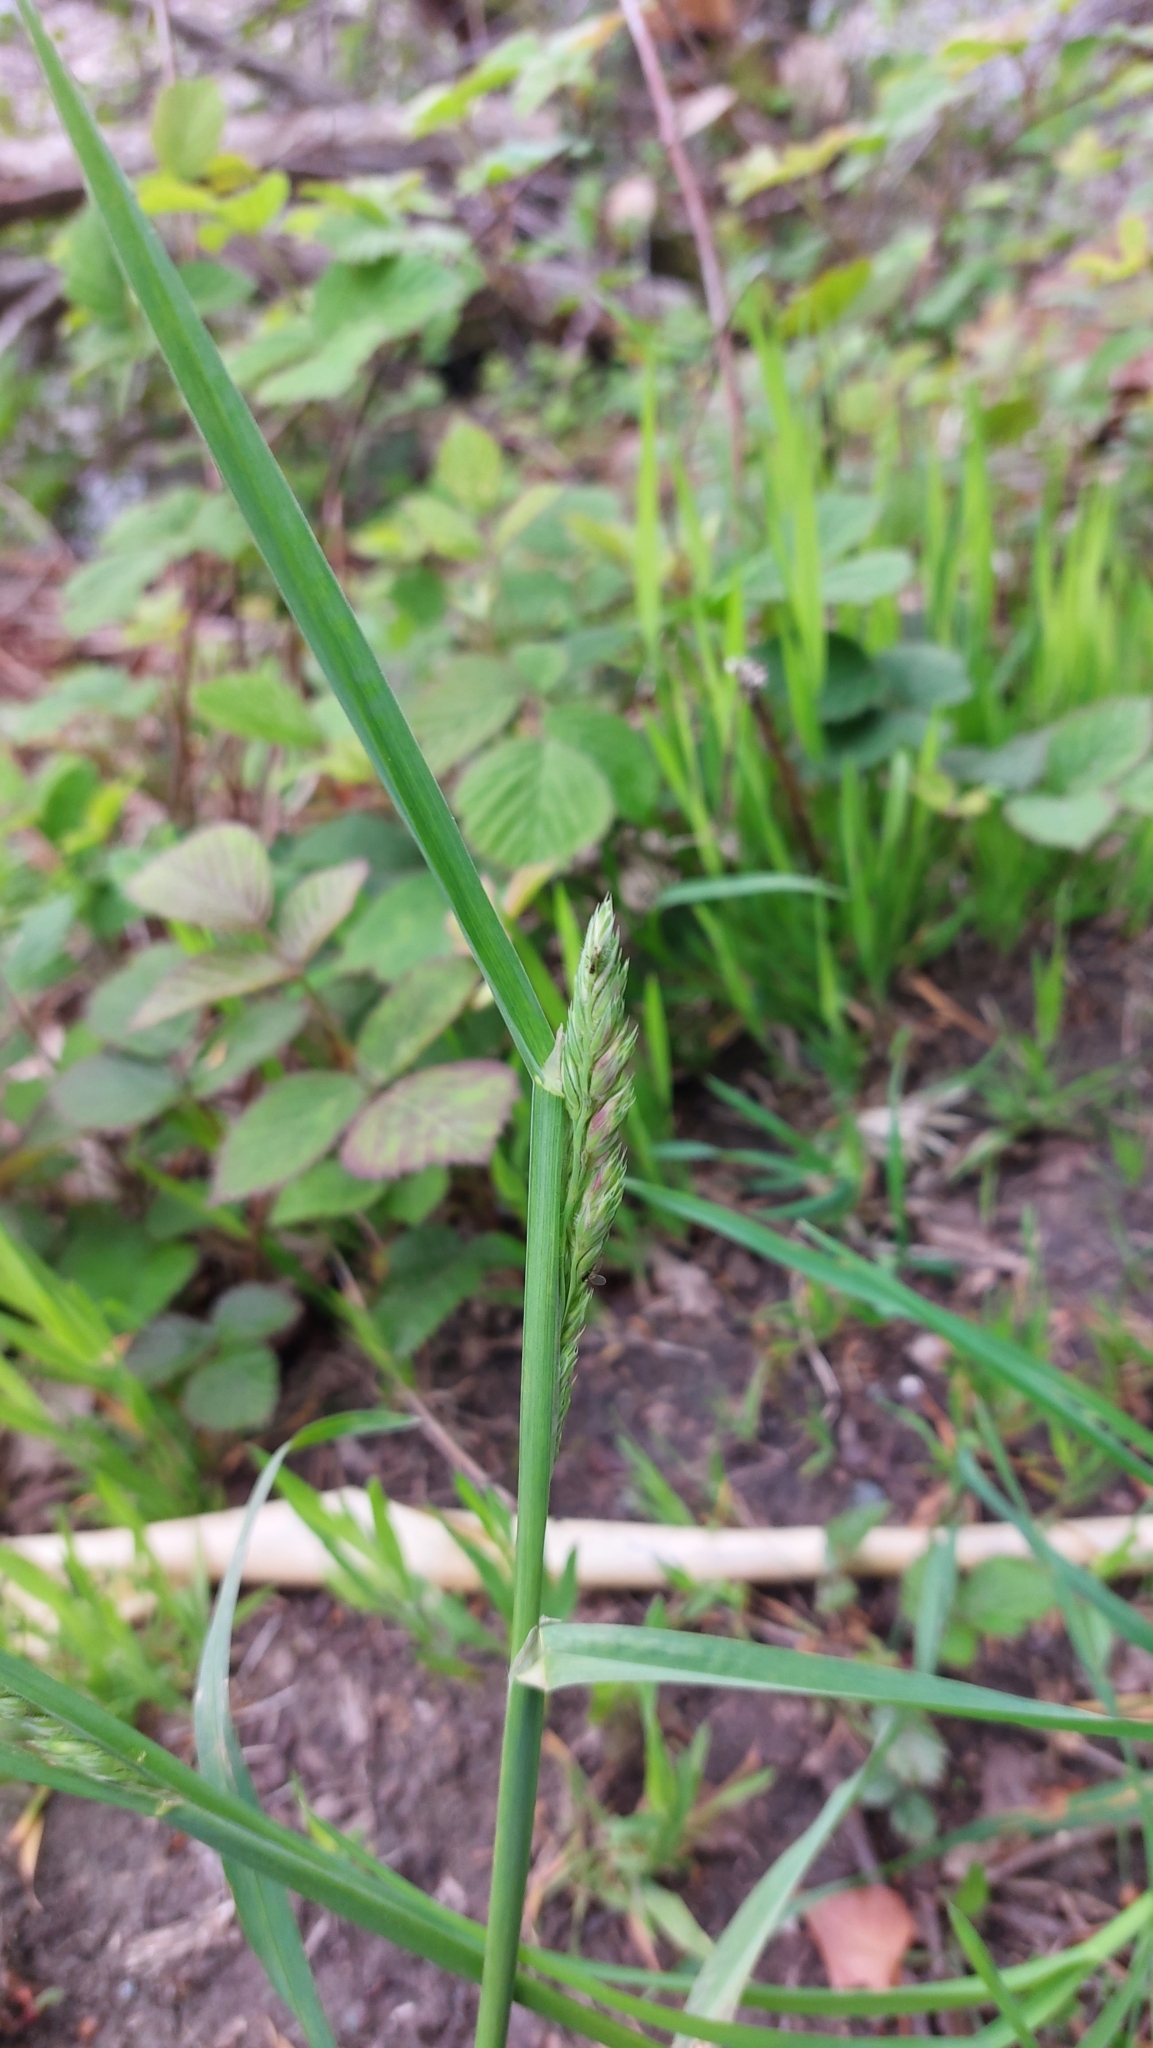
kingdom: Plantae
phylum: Tracheophyta
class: Liliopsida
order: Poales
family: Poaceae
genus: Dactylis
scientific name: Dactylis glomerata
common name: Orchardgrass
